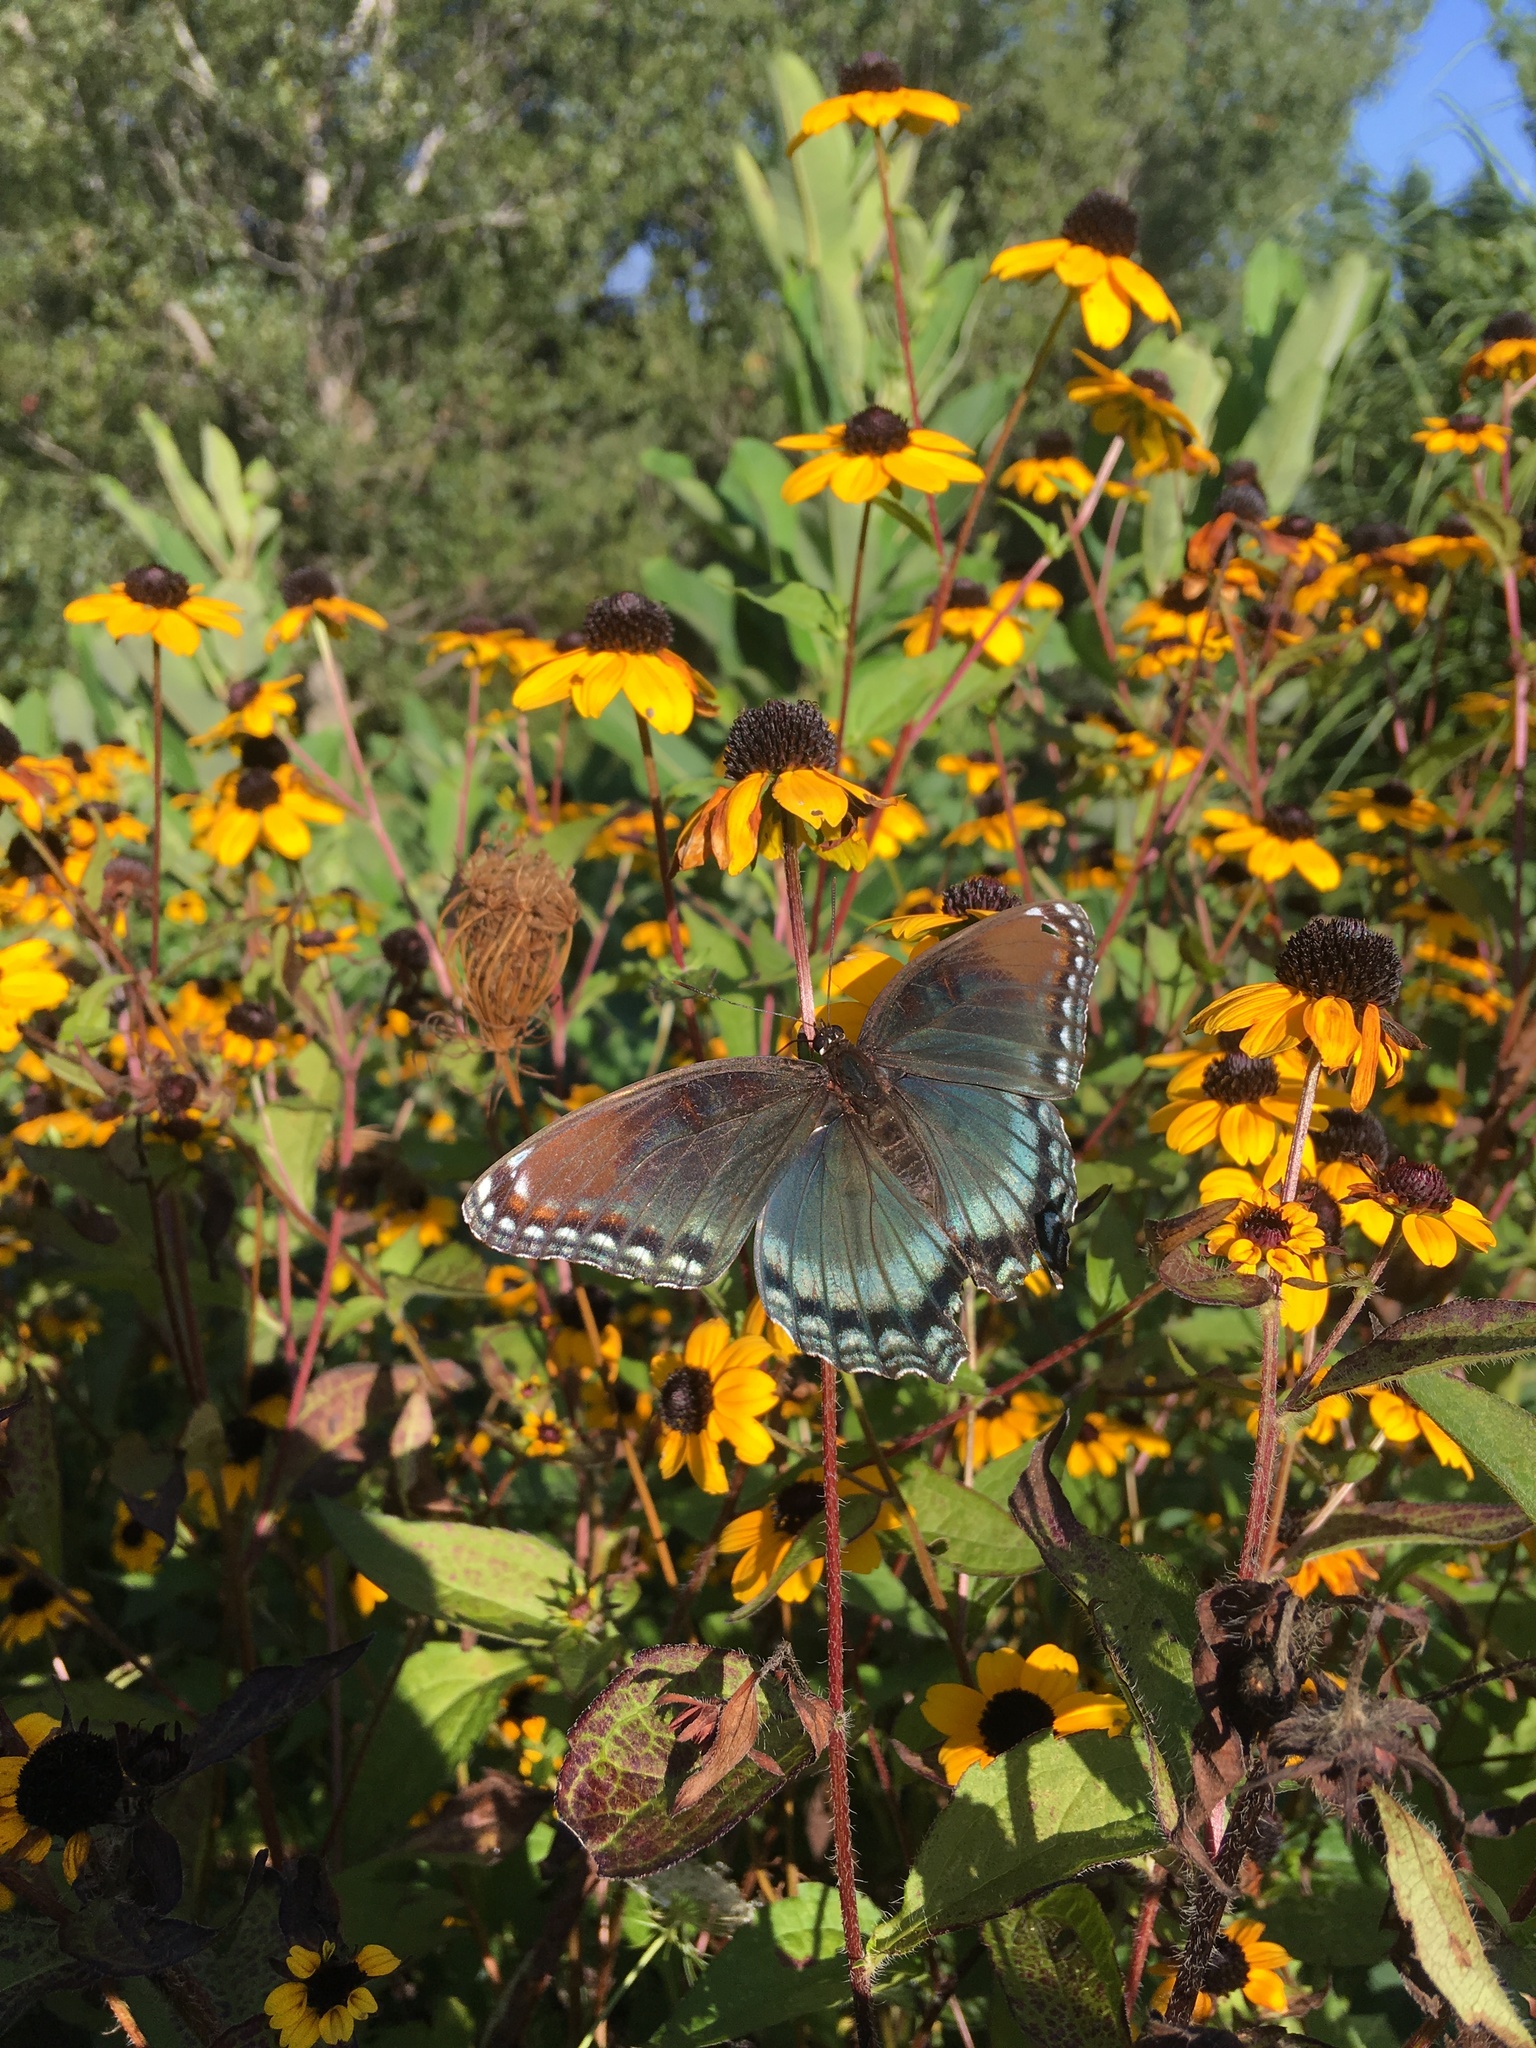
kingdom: Animalia
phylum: Arthropoda
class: Insecta
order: Lepidoptera
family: Nymphalidae
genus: Limenitis
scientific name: Limenitis astyanax
